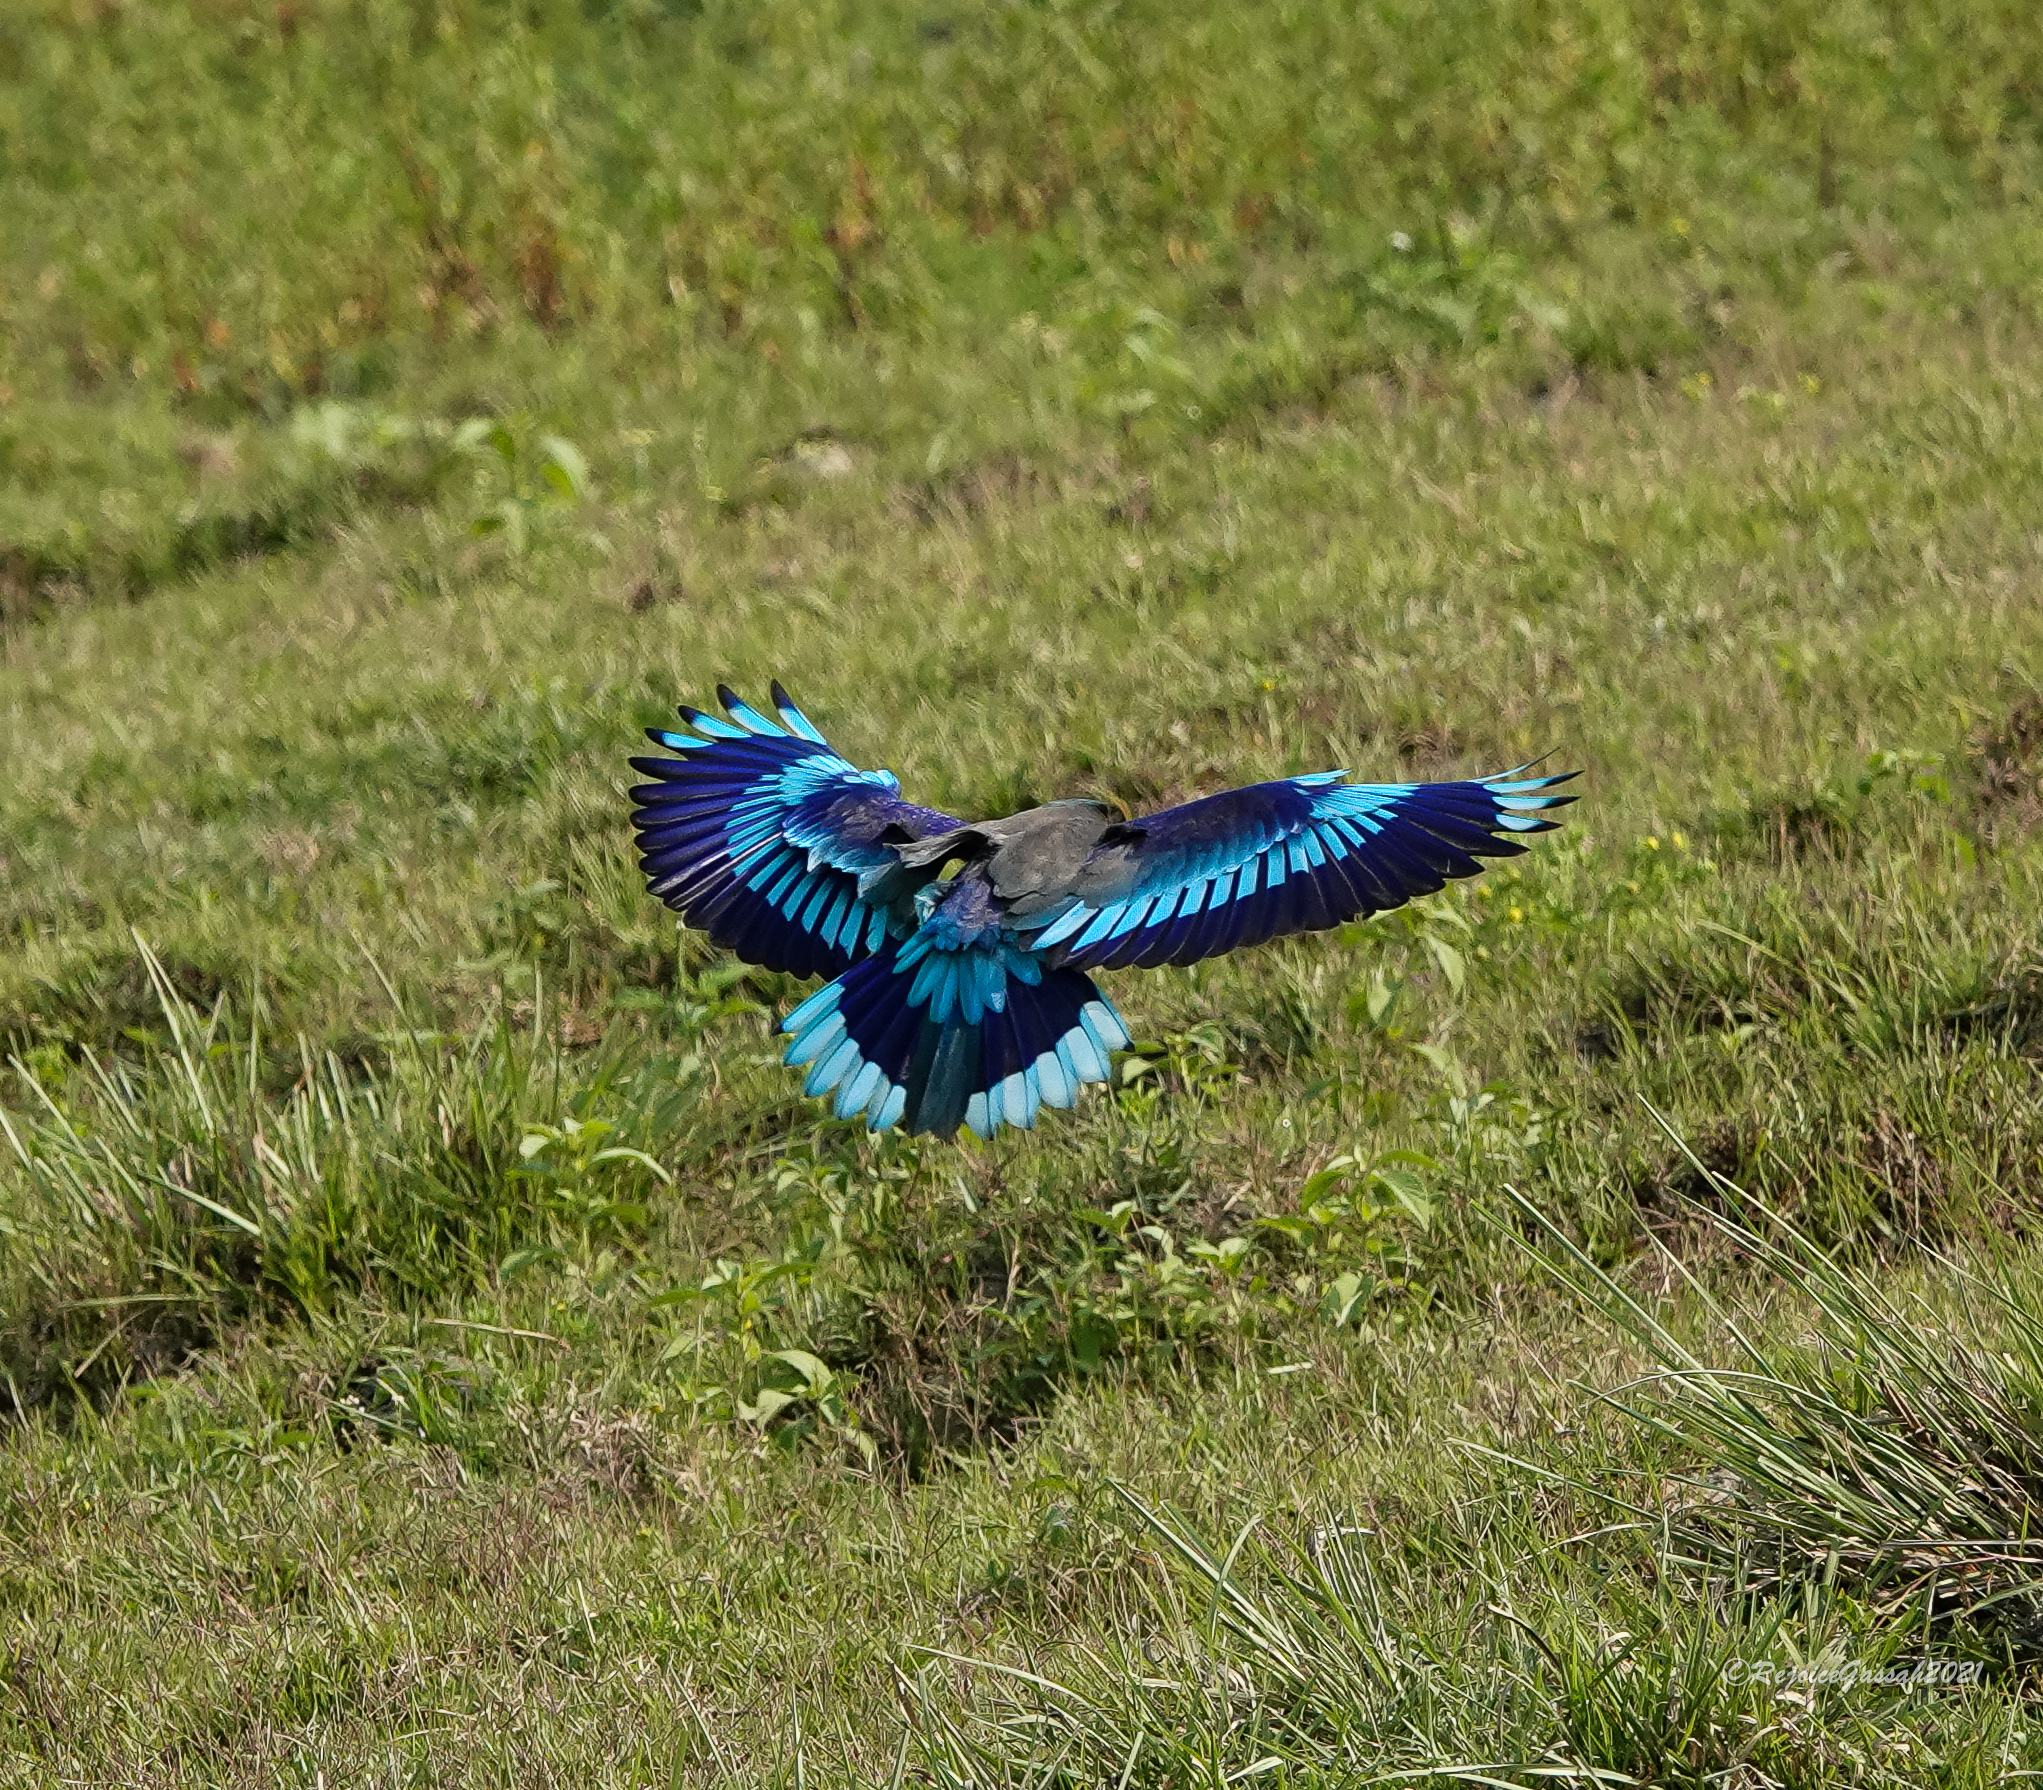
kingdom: Animalia
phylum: Chordata
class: Aves
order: Coraciiformes
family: Coraciidae
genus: Coracias
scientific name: Coracias affinis
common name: Indochinese roller
